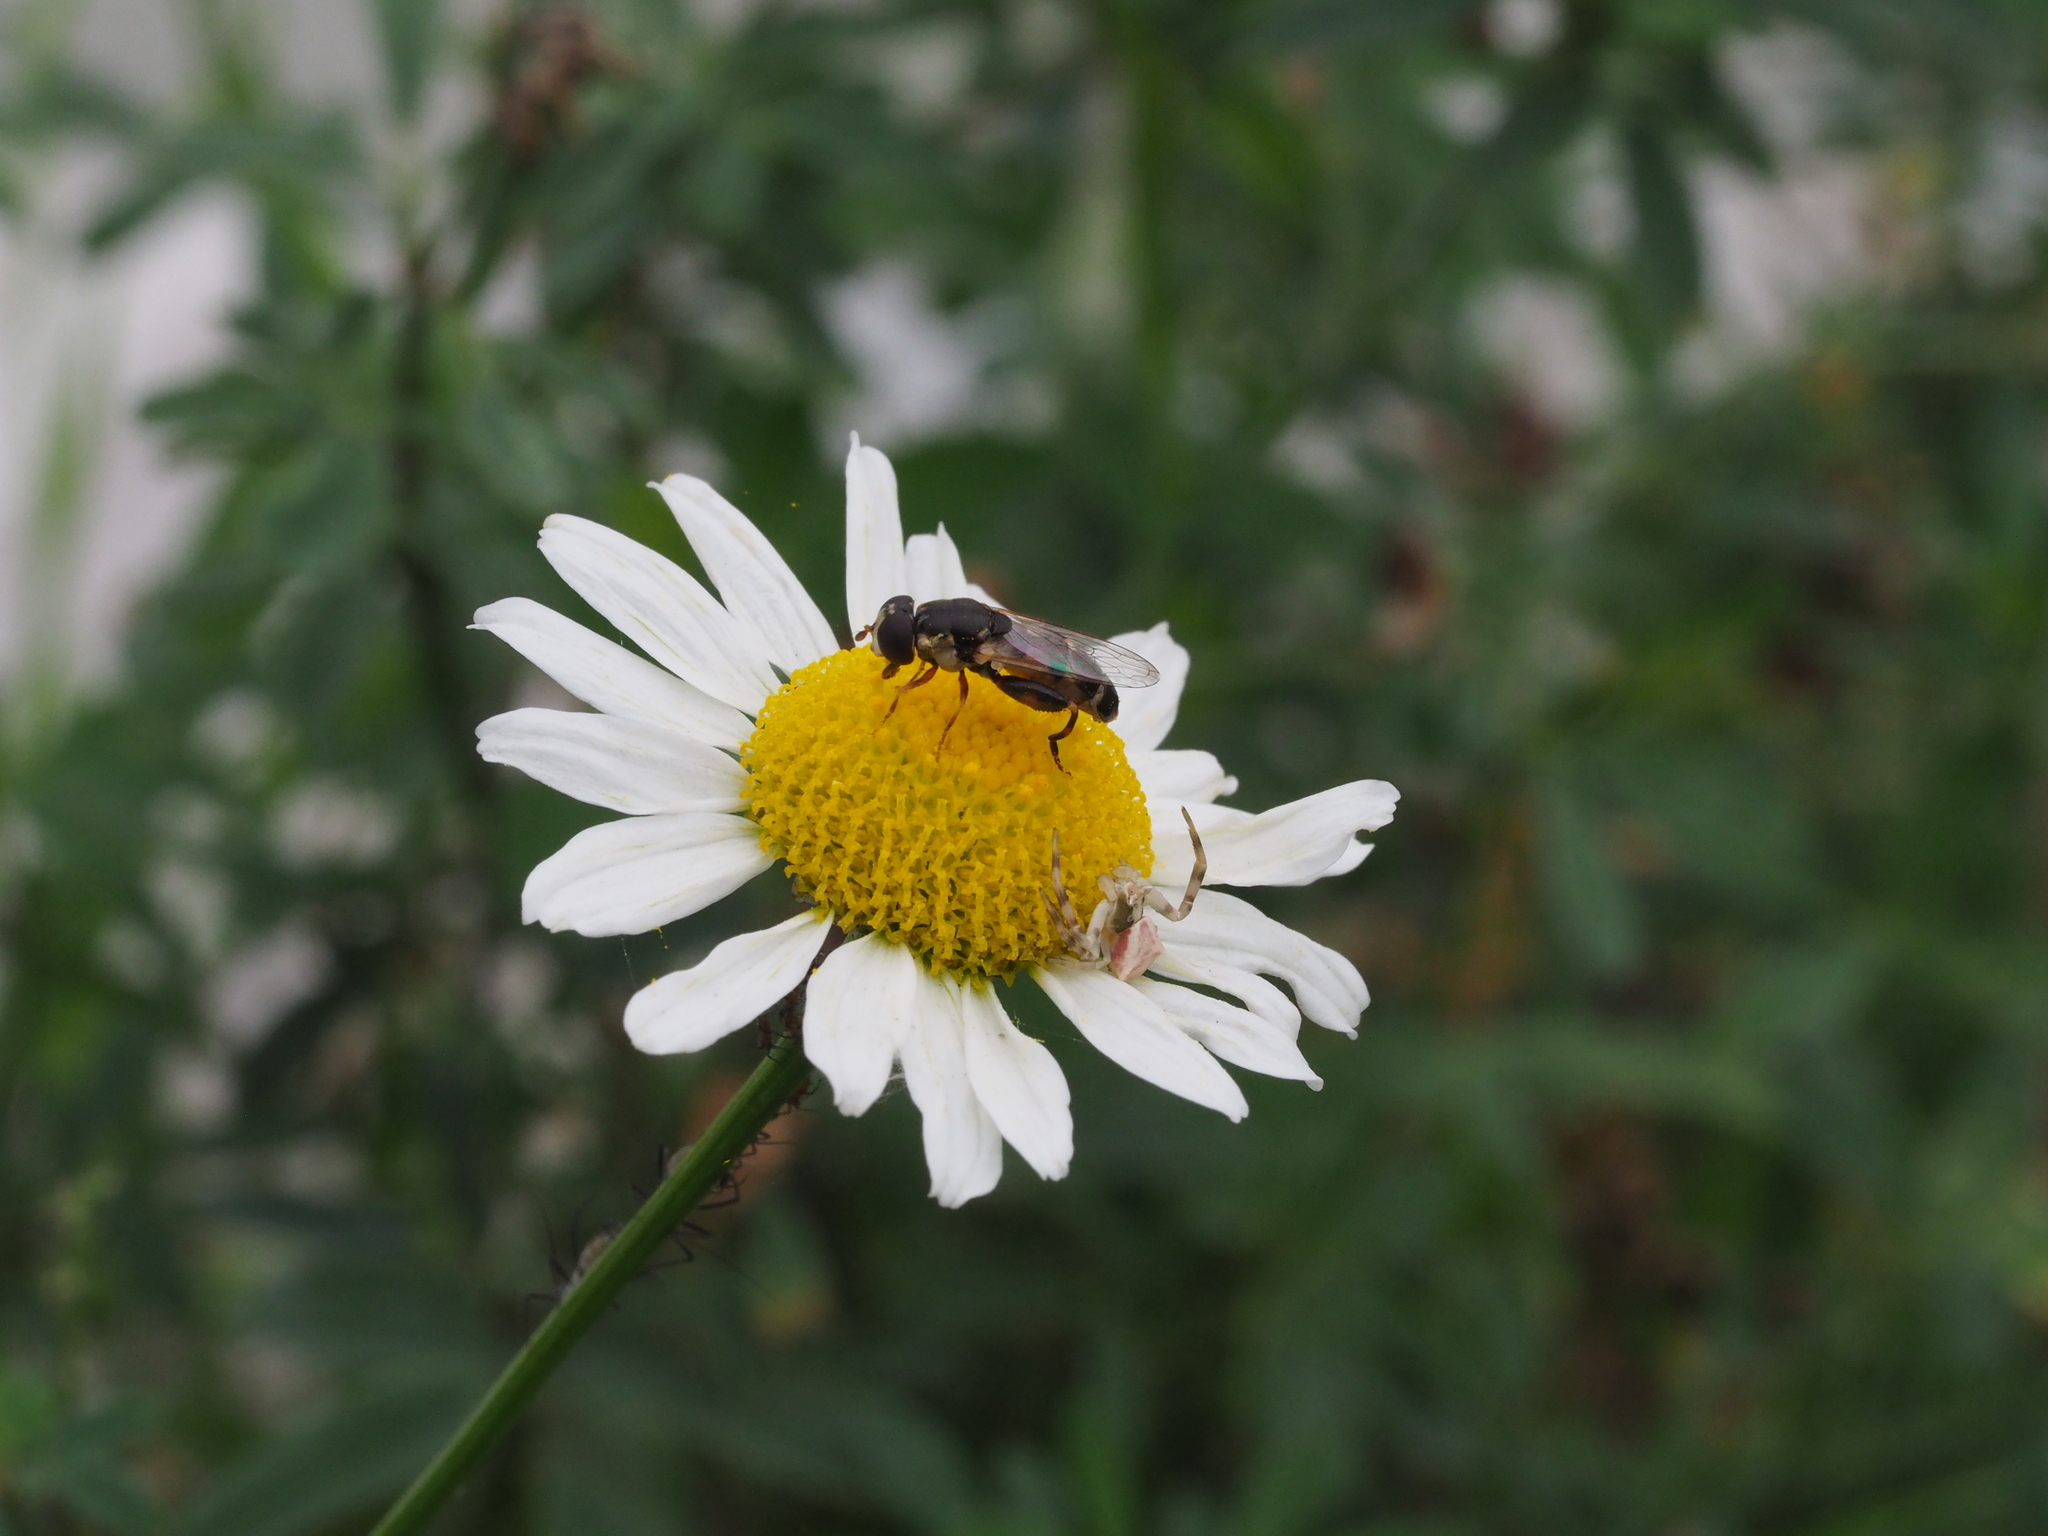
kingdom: Animalia
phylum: Arthropoda
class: Arachnida
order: Araneae
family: Thomisidae
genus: Thomisus
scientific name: Thomisus onustus
